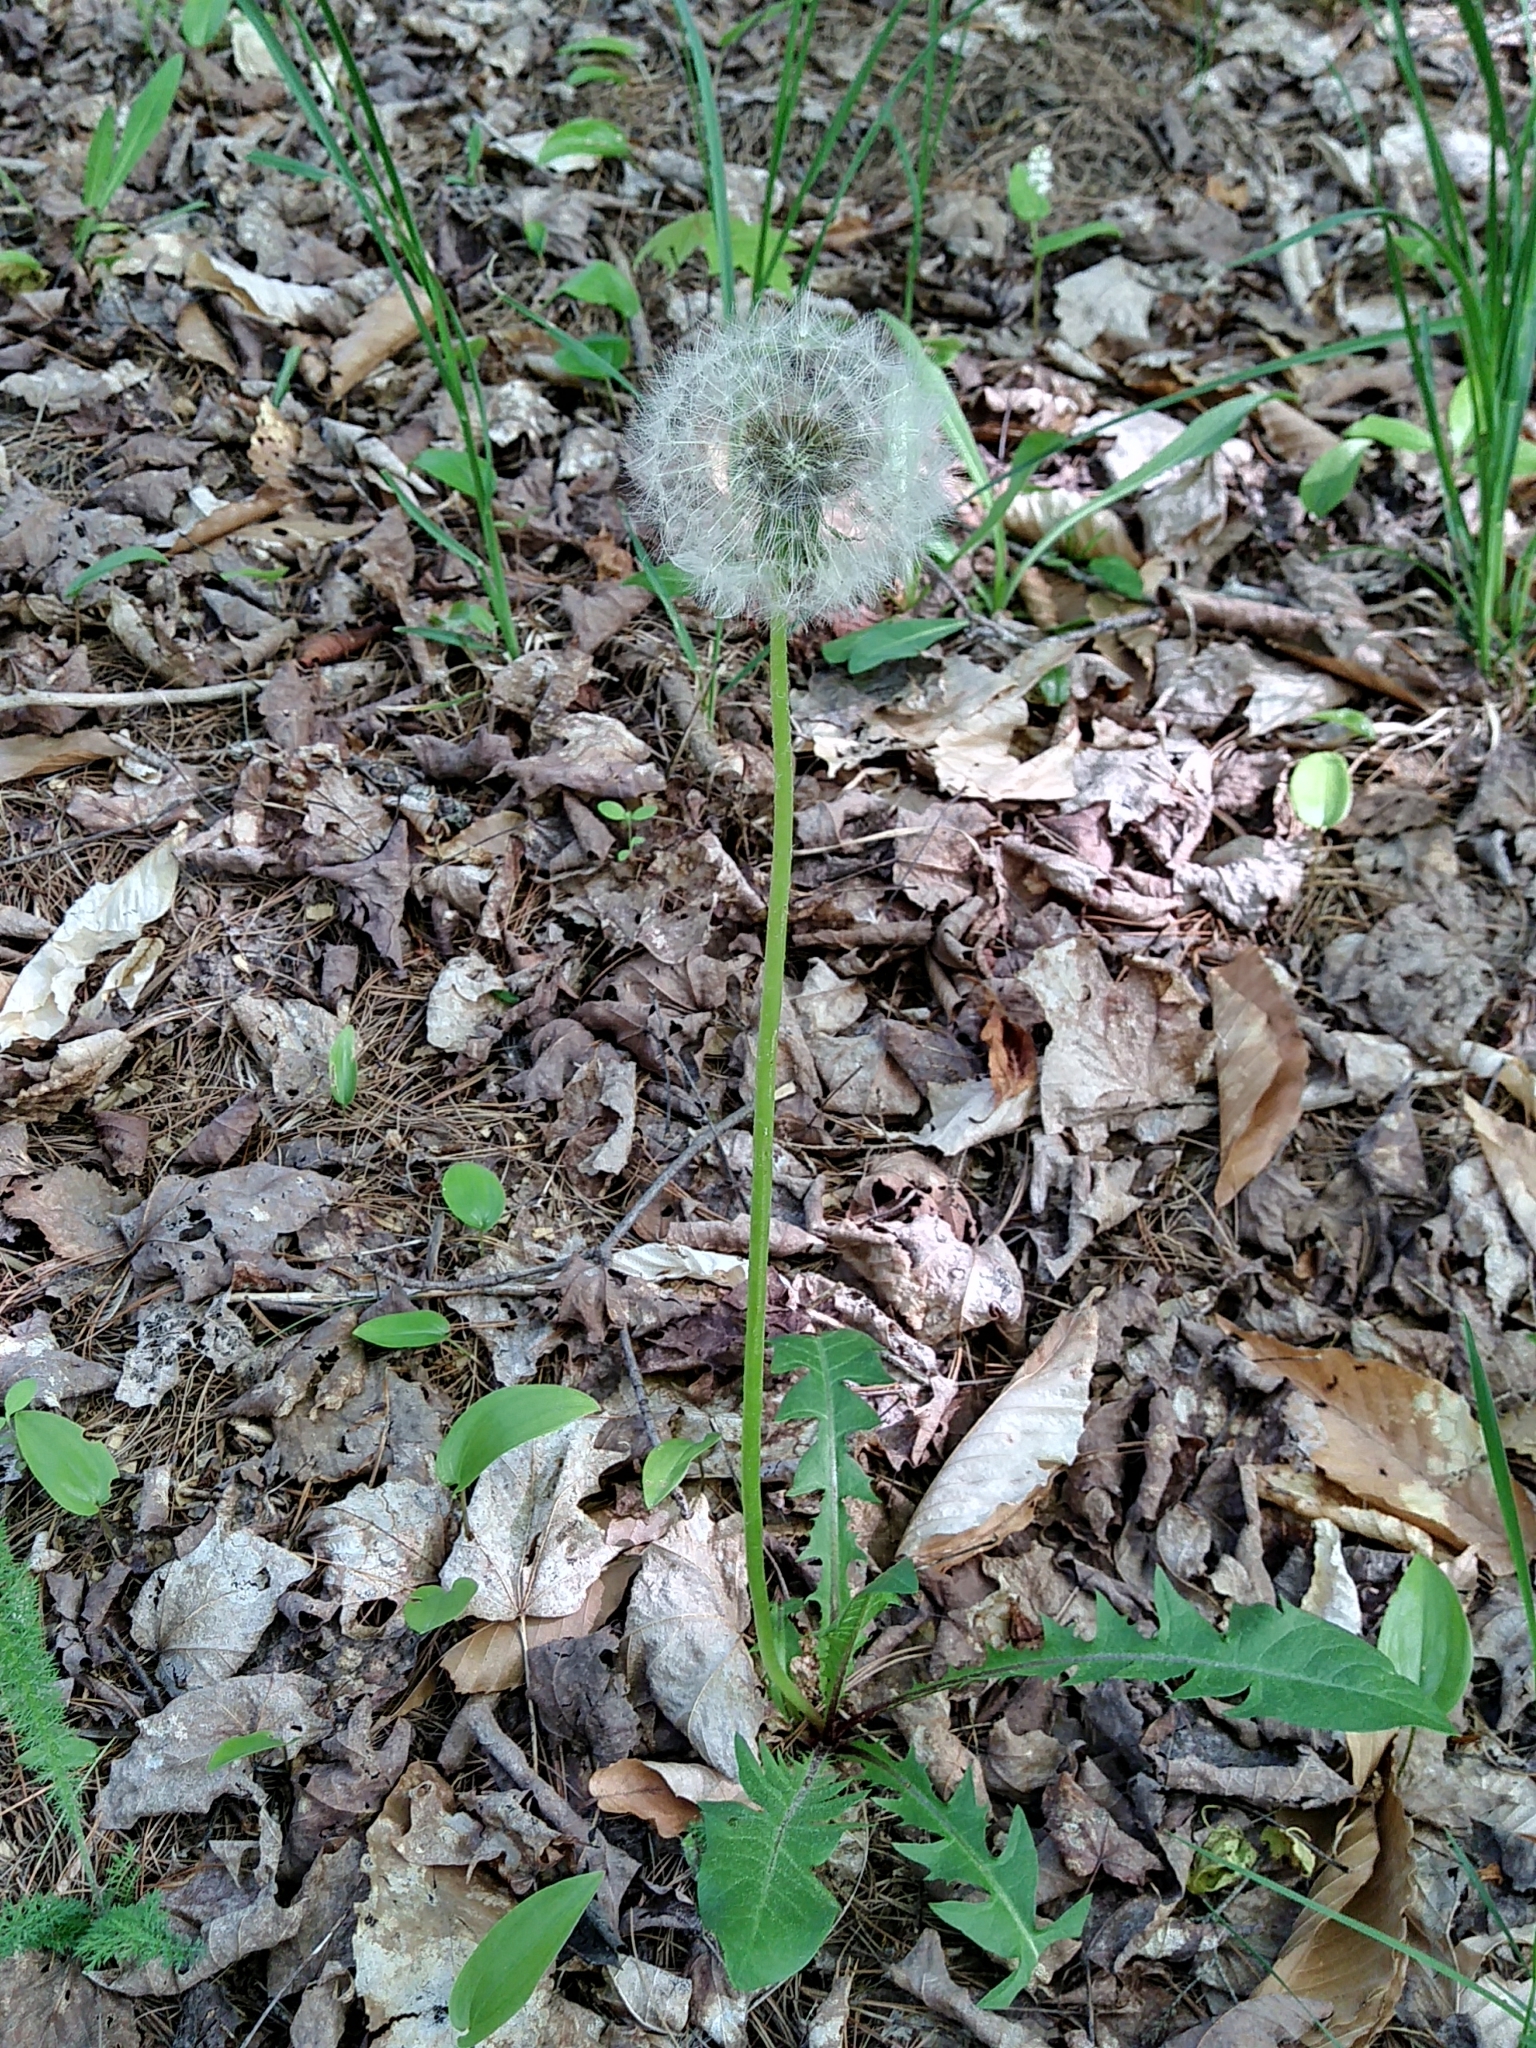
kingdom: Plantae
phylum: Tracheophyta
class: Magnoliopsida
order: Asterales
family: Asteraceae
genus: Taraxacum
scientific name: Taraxacum officinale
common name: Common dandelion
